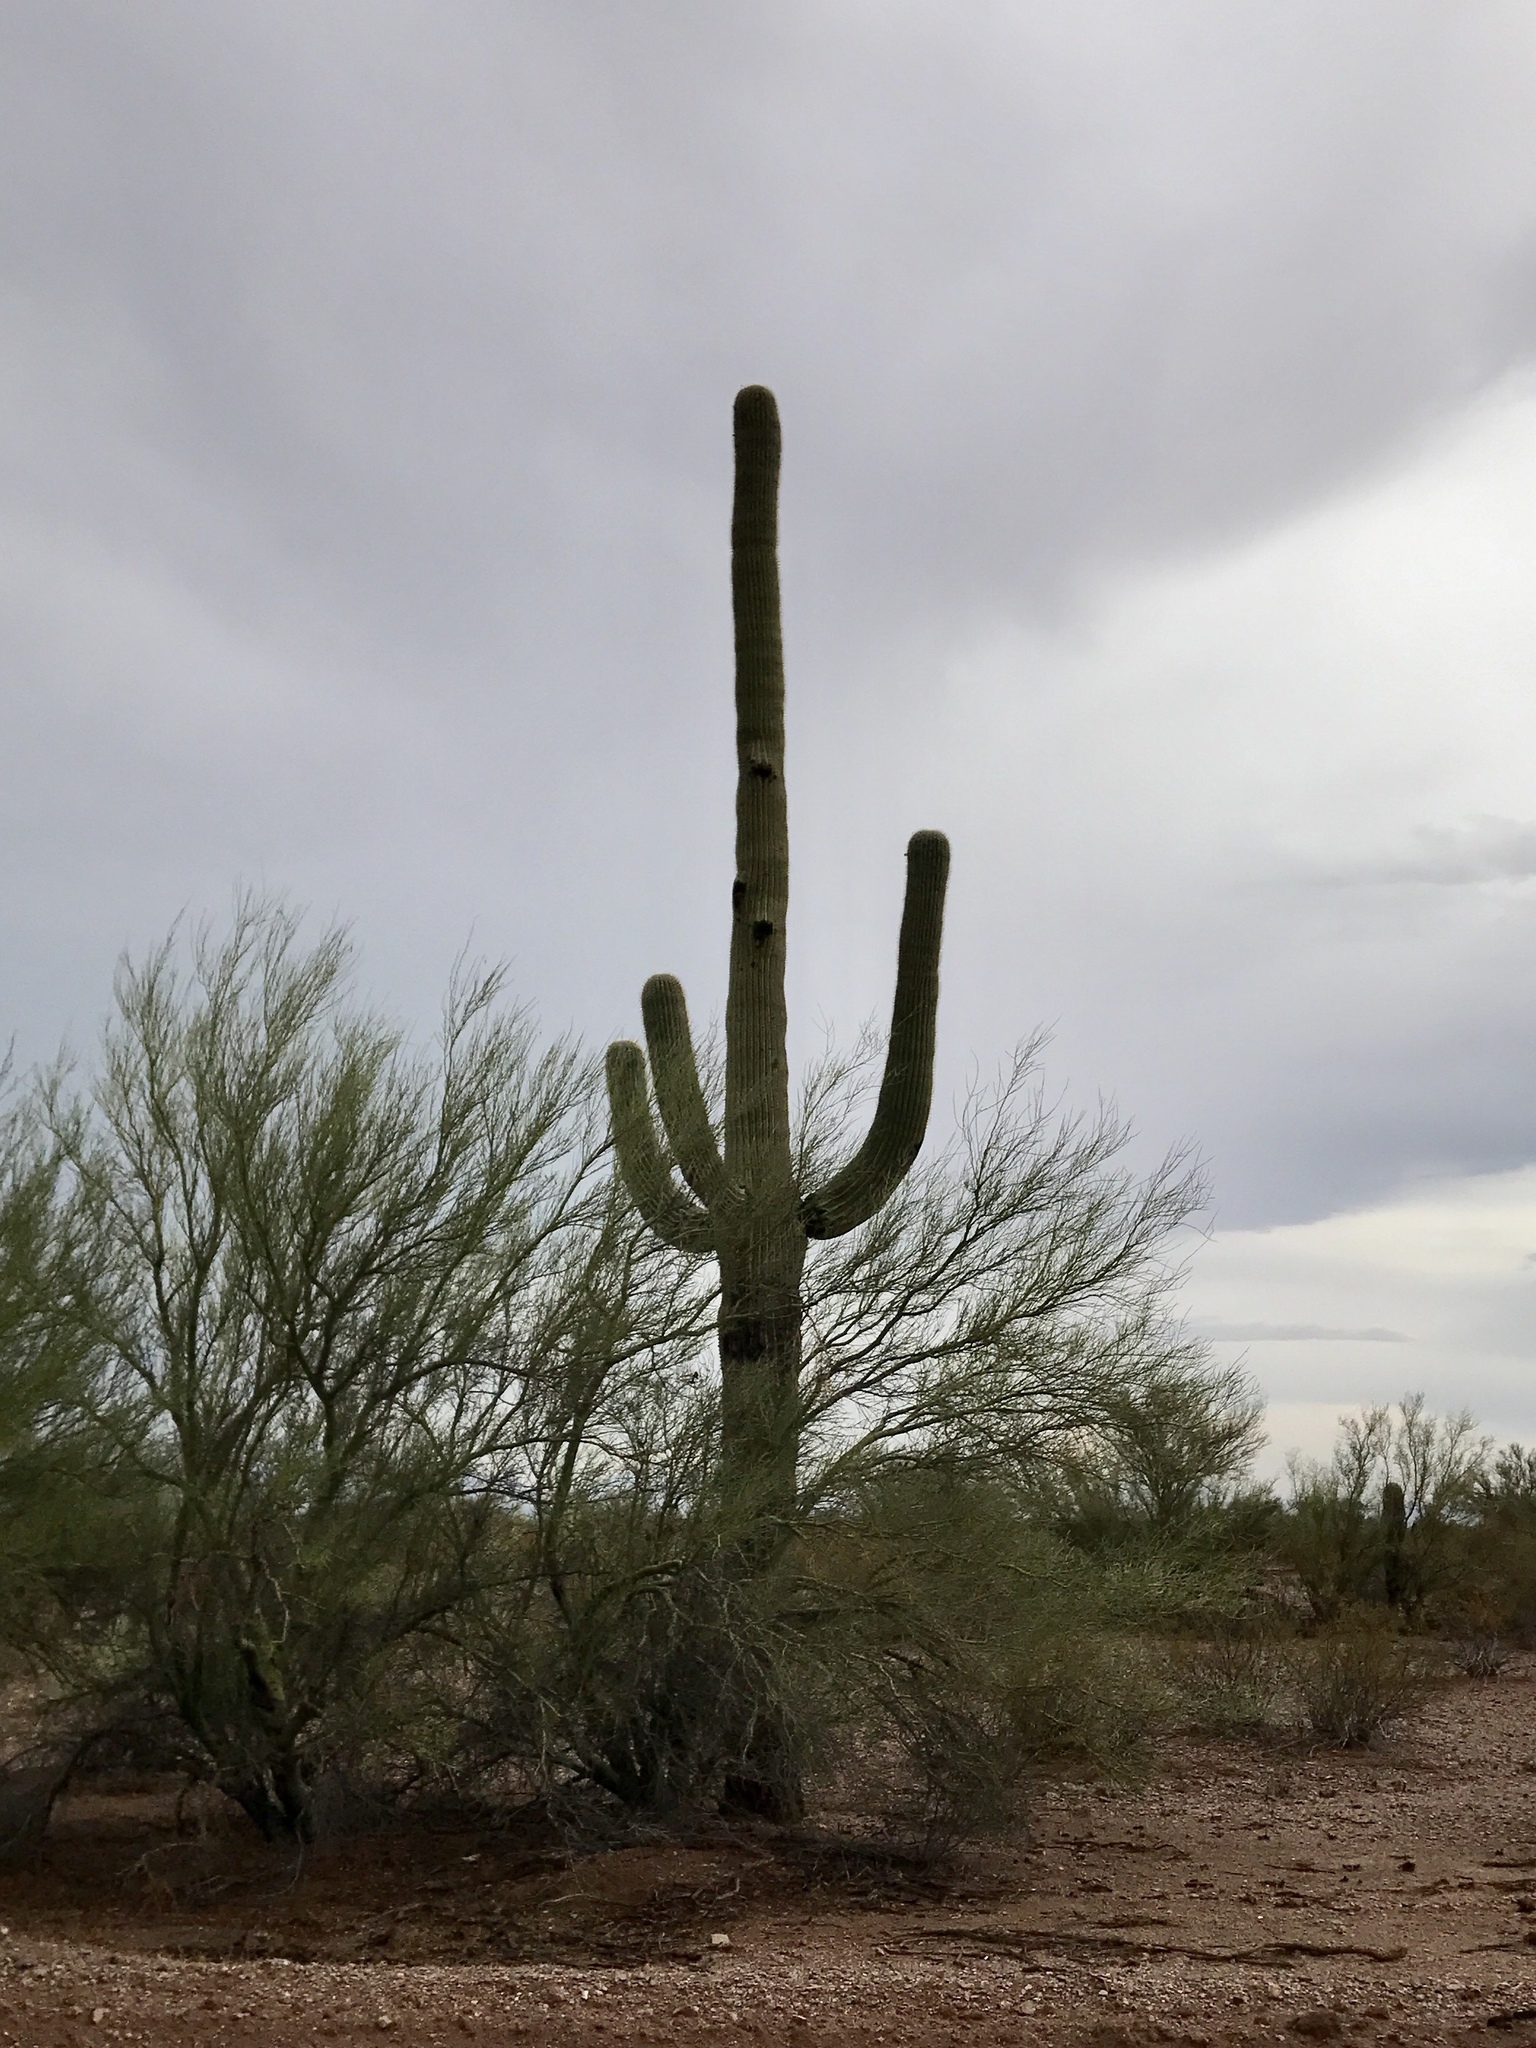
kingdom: Plantae
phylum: Tracheophyta
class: Magnoliopsida
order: Caryophyllales
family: Cactaceae
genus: Carnegiea
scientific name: Carnegiea gigantea
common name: Saguaro
